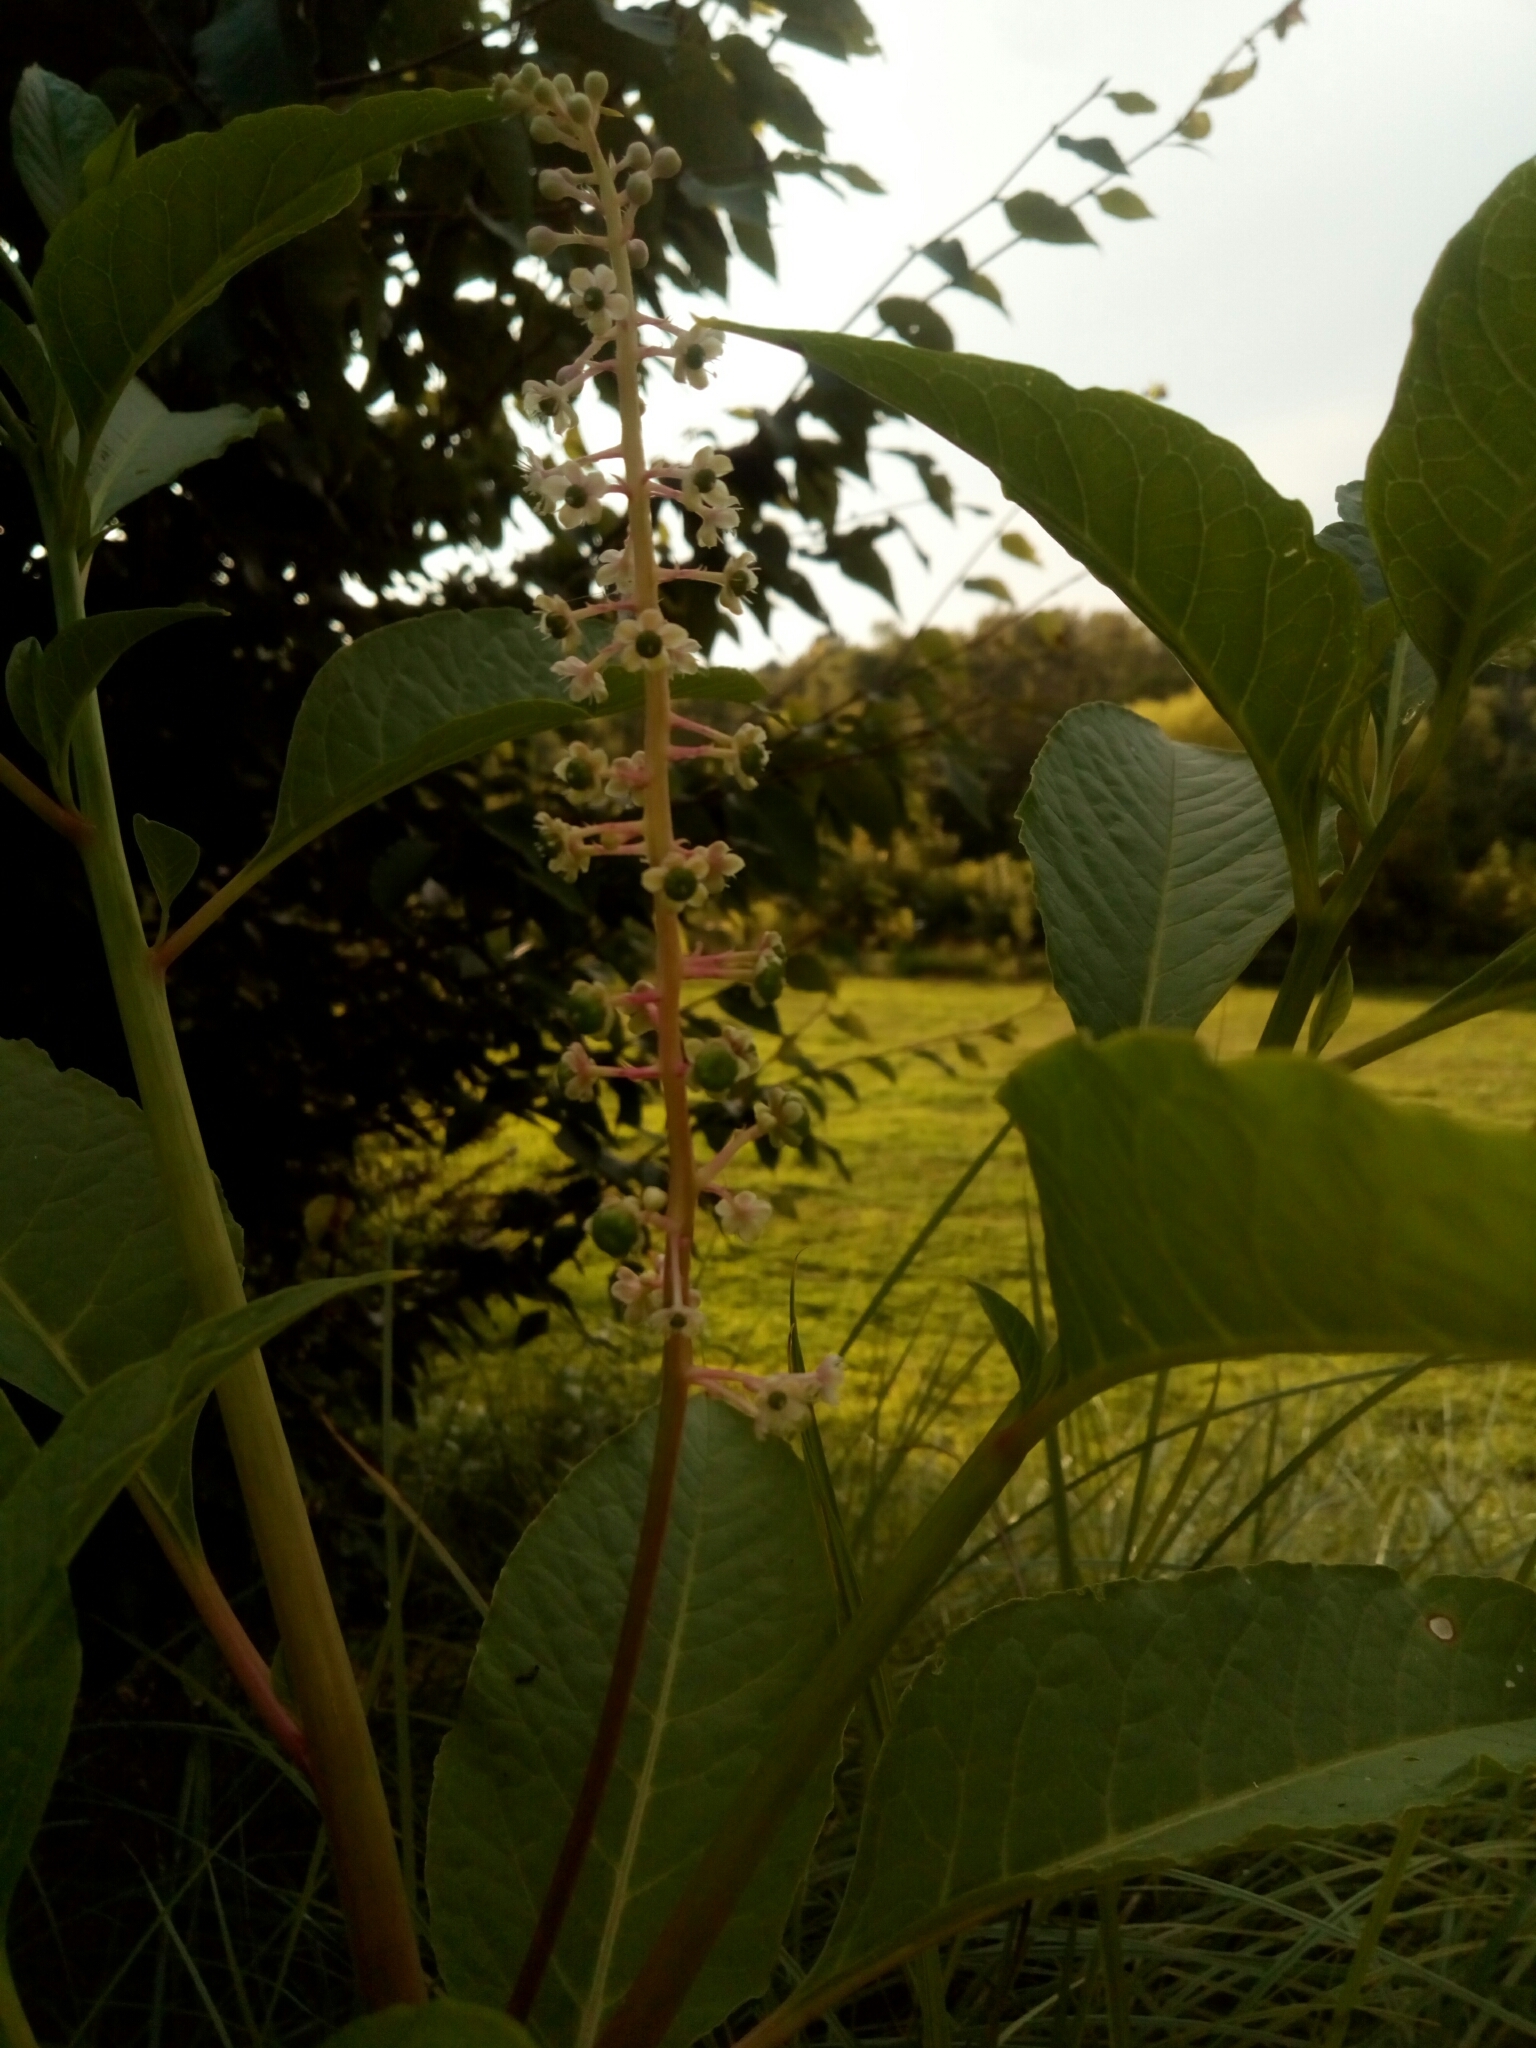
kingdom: Plantae
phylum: Tracheophyta
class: Magnoliopsida
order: Caryophyllales
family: Phytolaccaceae
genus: Phytolacca
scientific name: Phytolacca americana
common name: American pokeweed
